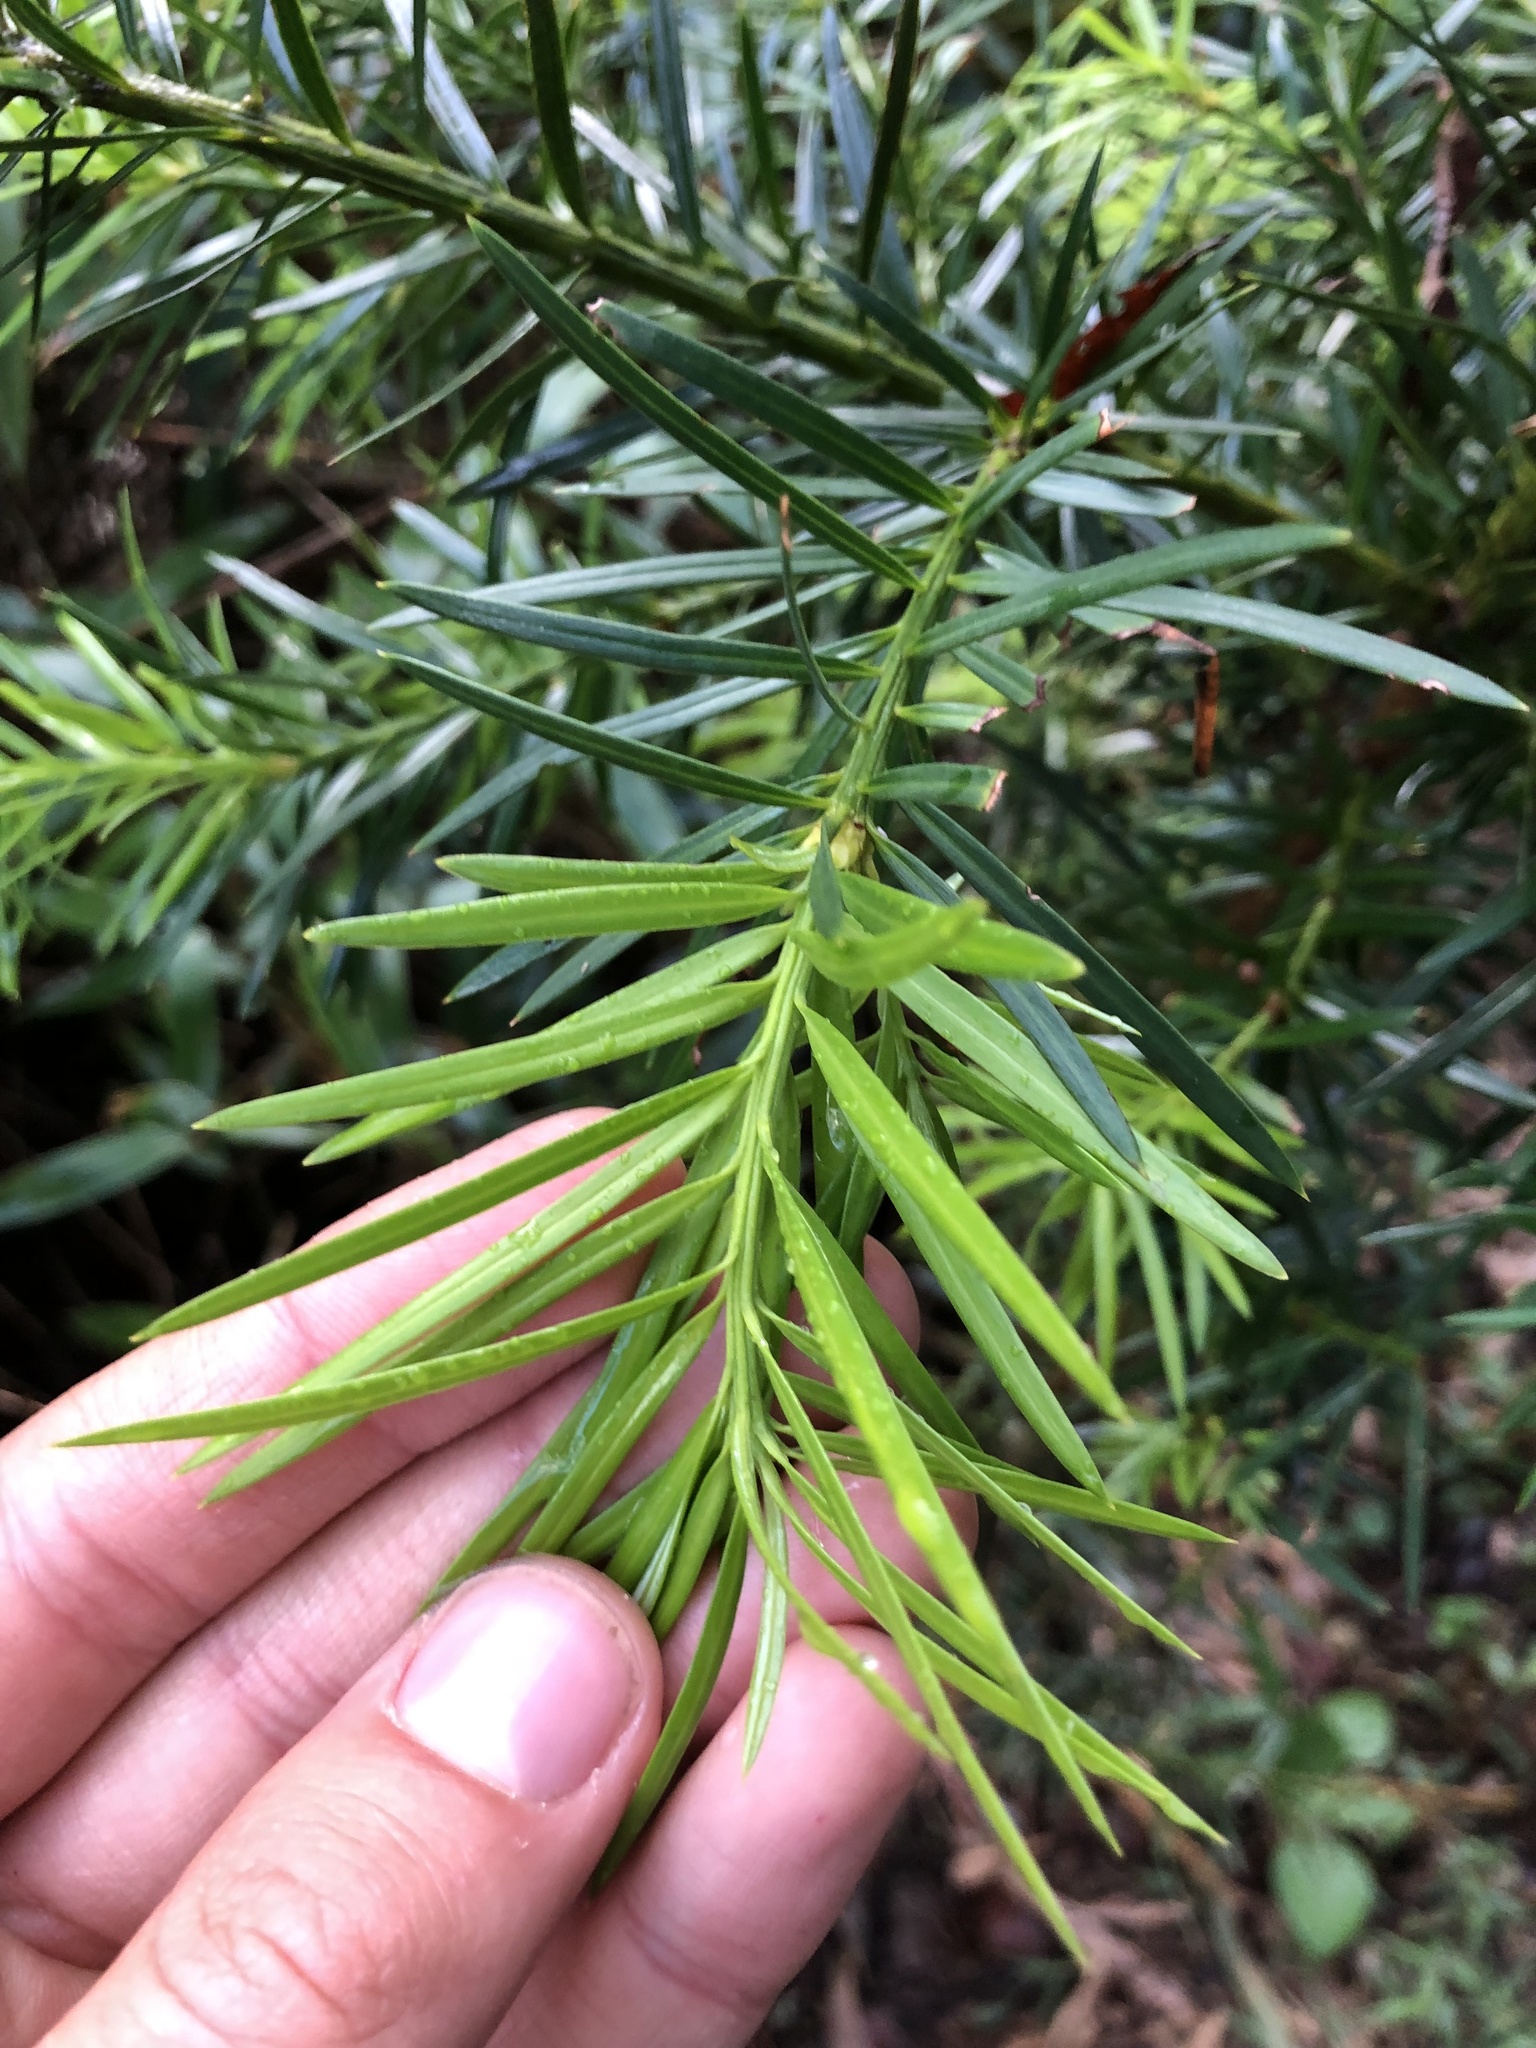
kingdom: Plantae
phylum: Tracheophyta
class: Pinopsida
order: Pinales
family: Podocarpaceae
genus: Podocarpus
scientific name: Podocarpus glomeratus
